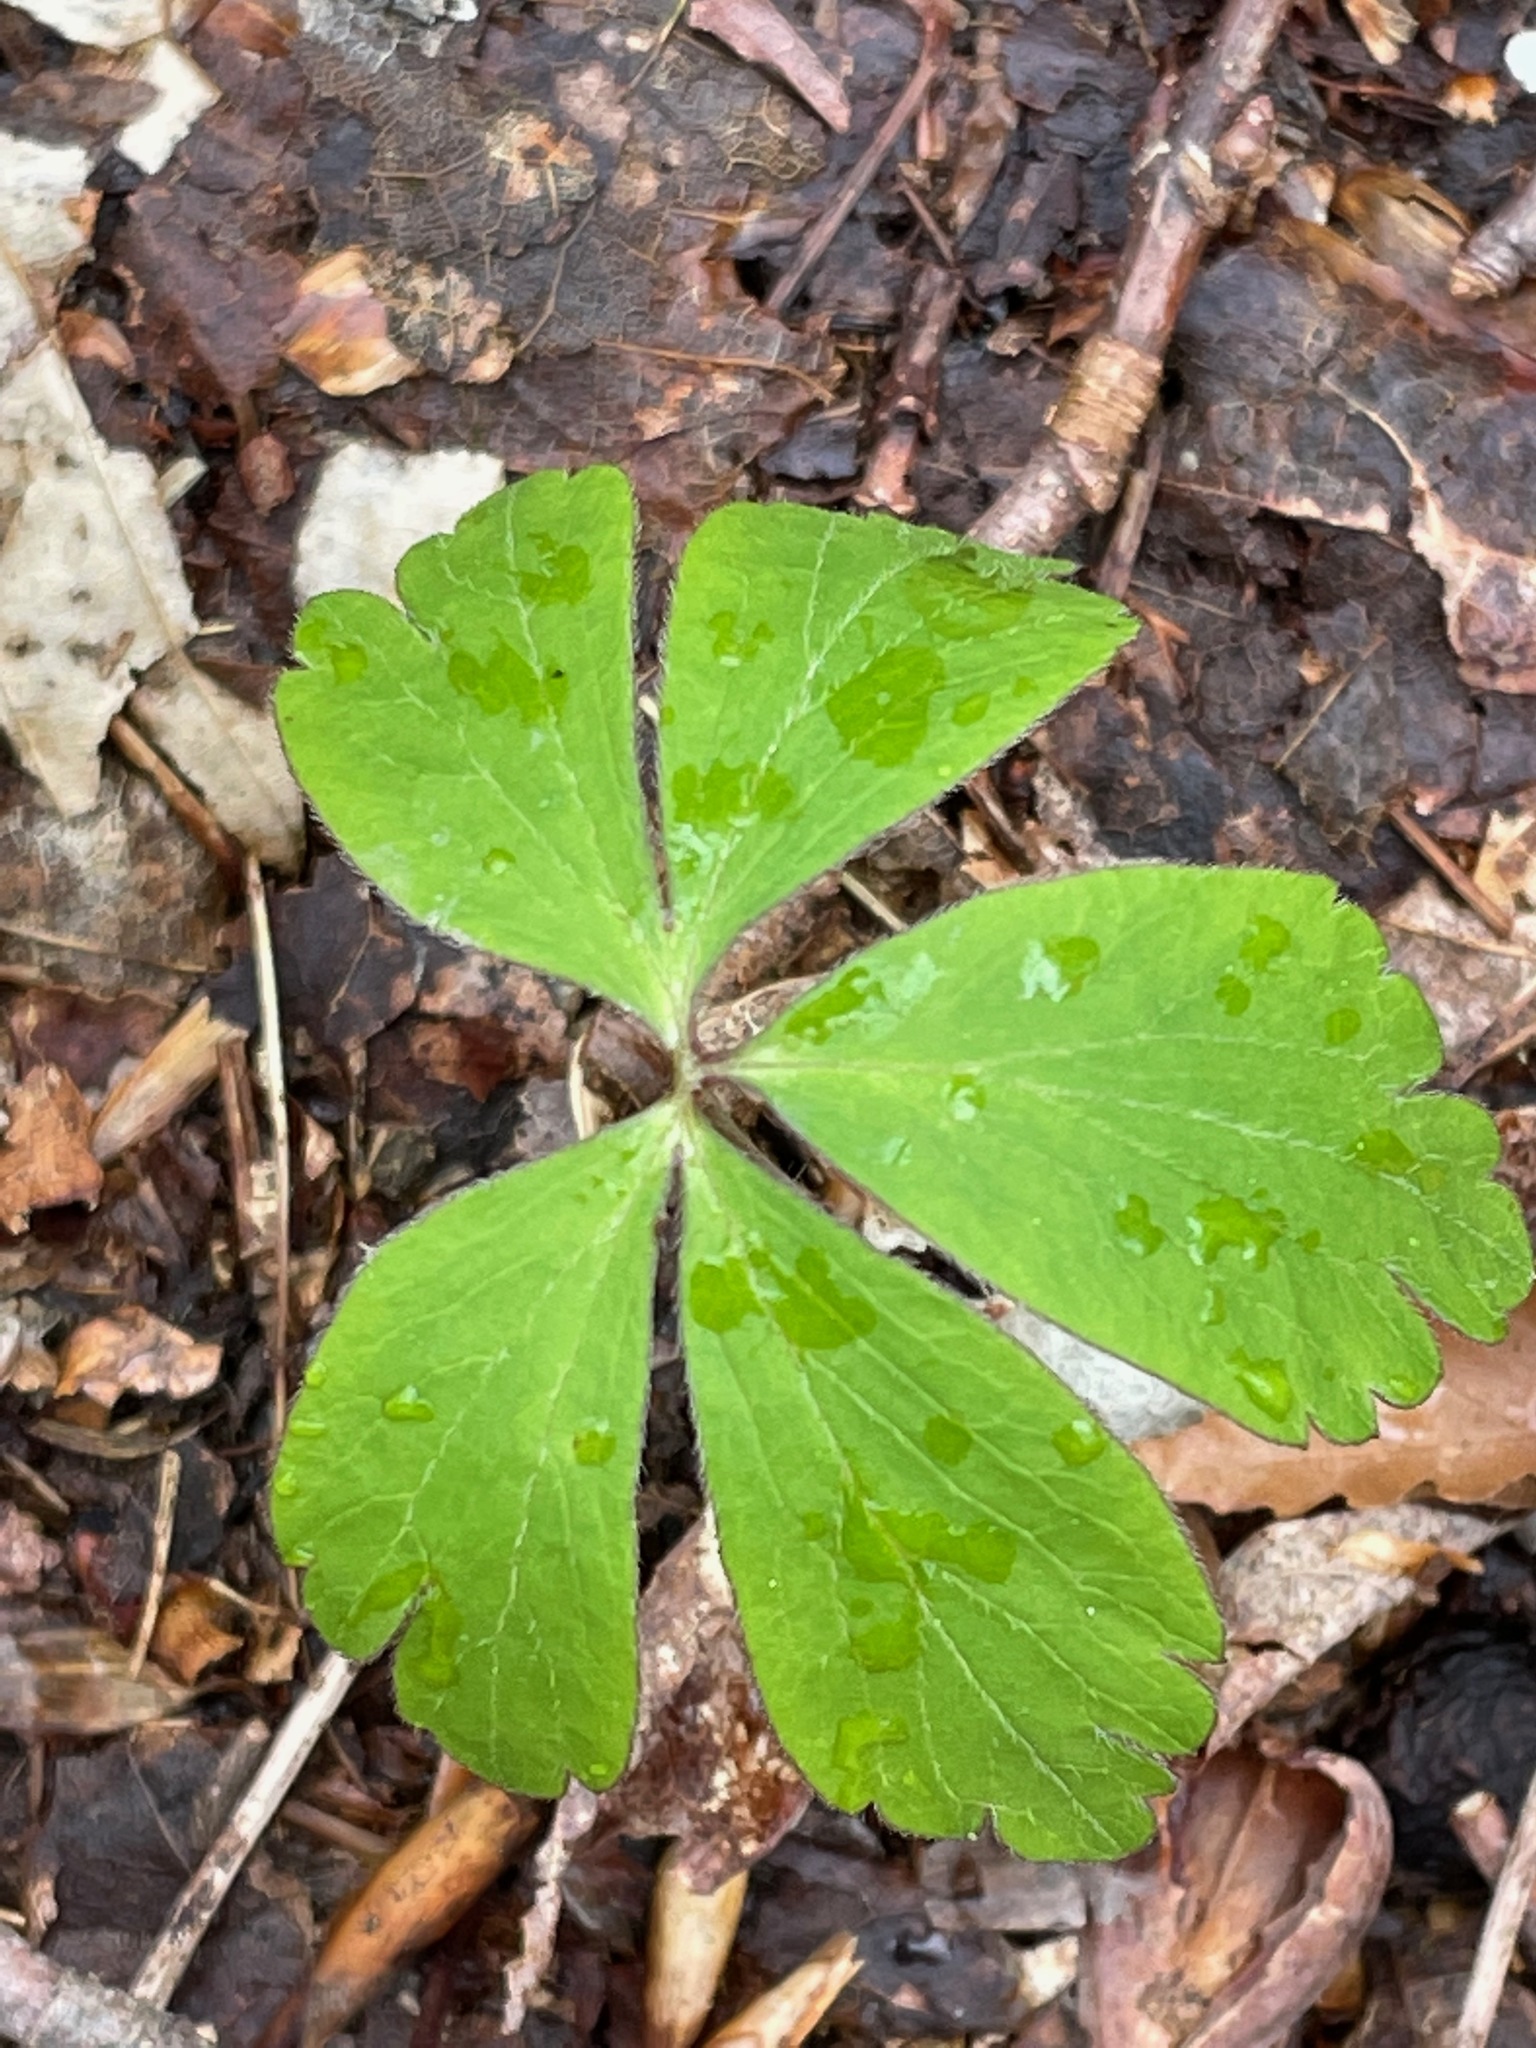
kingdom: Plantae
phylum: Tracheophyta
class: Magnoliopsida
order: Ranunculales
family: Ranunculaceae
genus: Anemone
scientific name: Anemone quinquefolia
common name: Wood anemone
